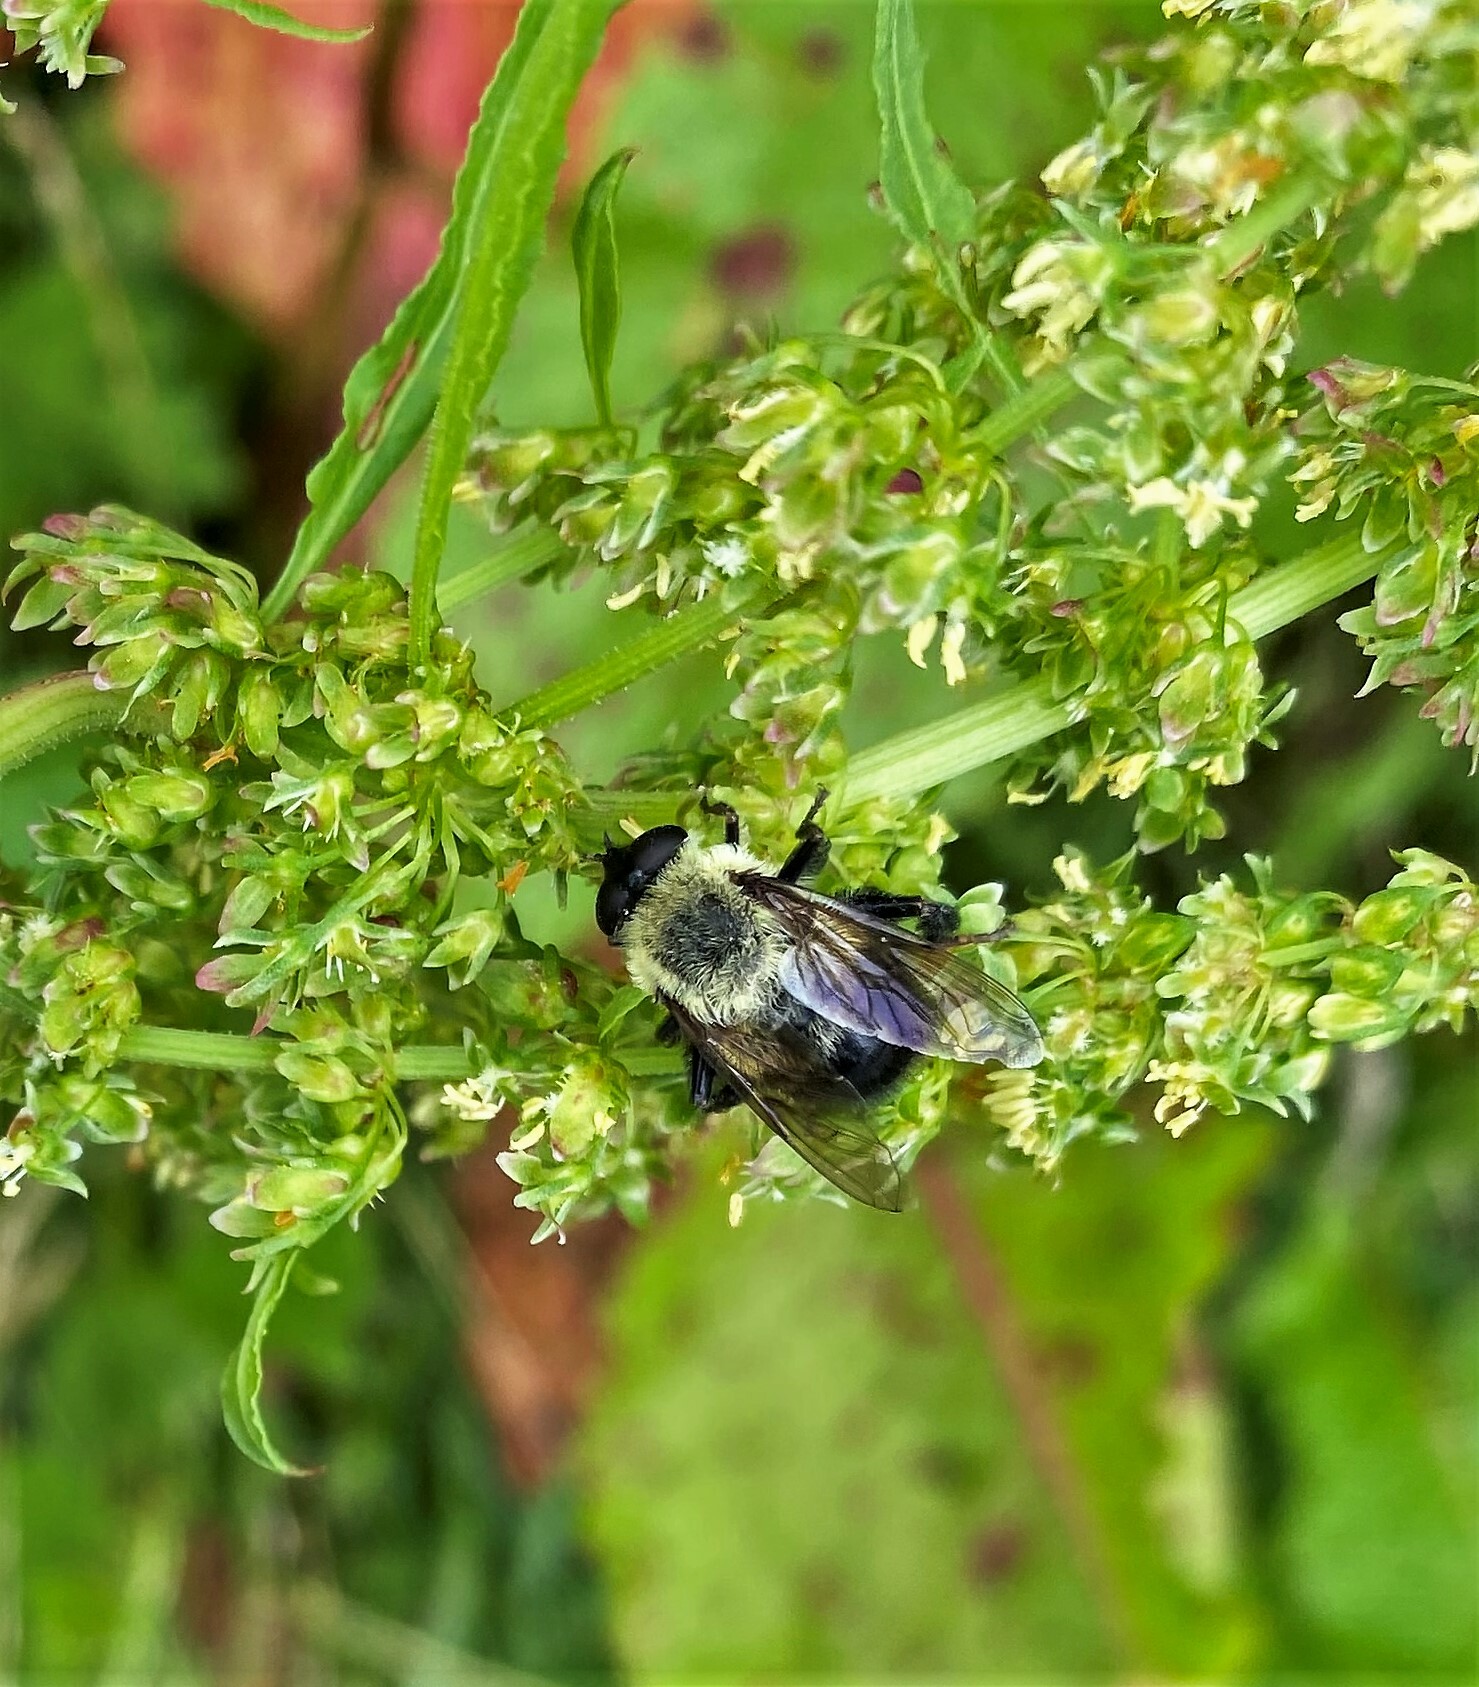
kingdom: Animalia
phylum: Arthropoda
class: Insecta
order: Diptera
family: Syrphidae
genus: Imatisma
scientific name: Imatisma posticata
